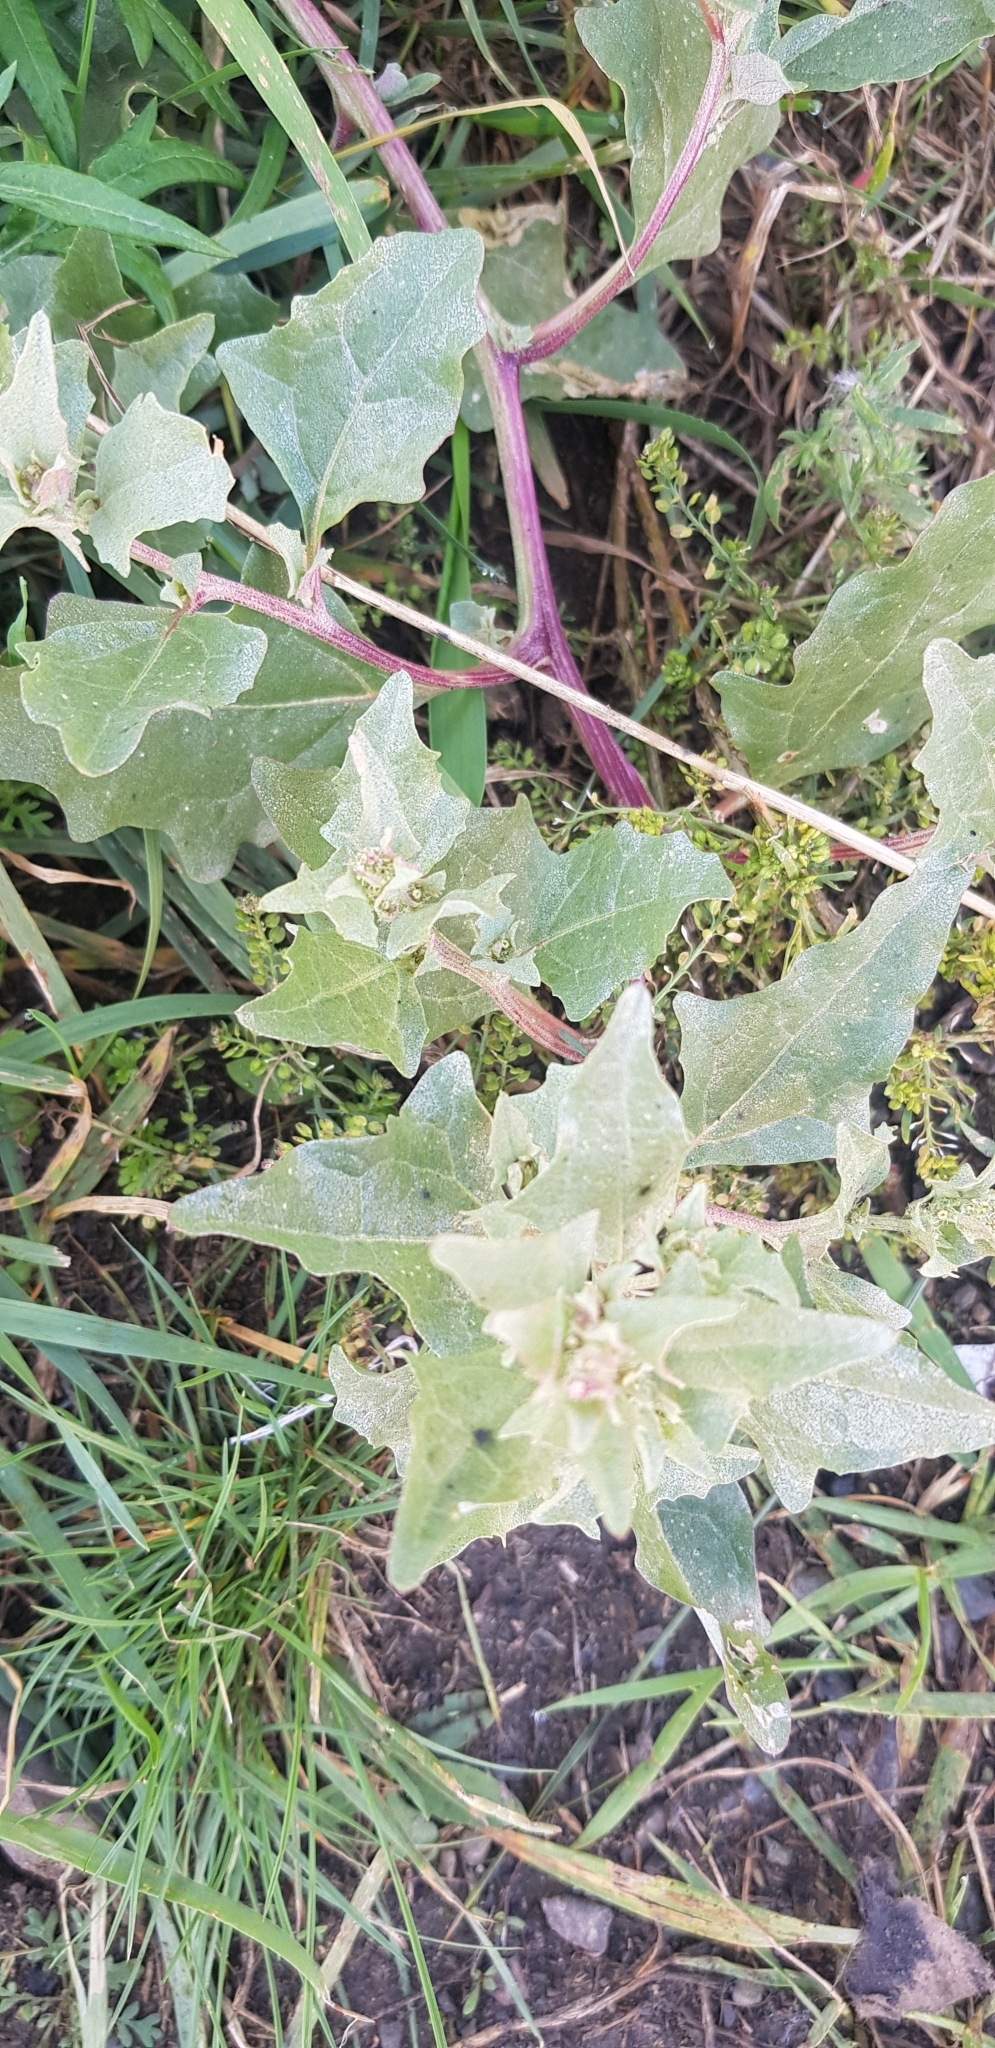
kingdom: Plantae
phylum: Tracheophyta
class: Magnoliopsida
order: Caryophyllales
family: Amaranthaceae
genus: Atriplex
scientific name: Atriplex sibirica
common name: Siberian saltbush
